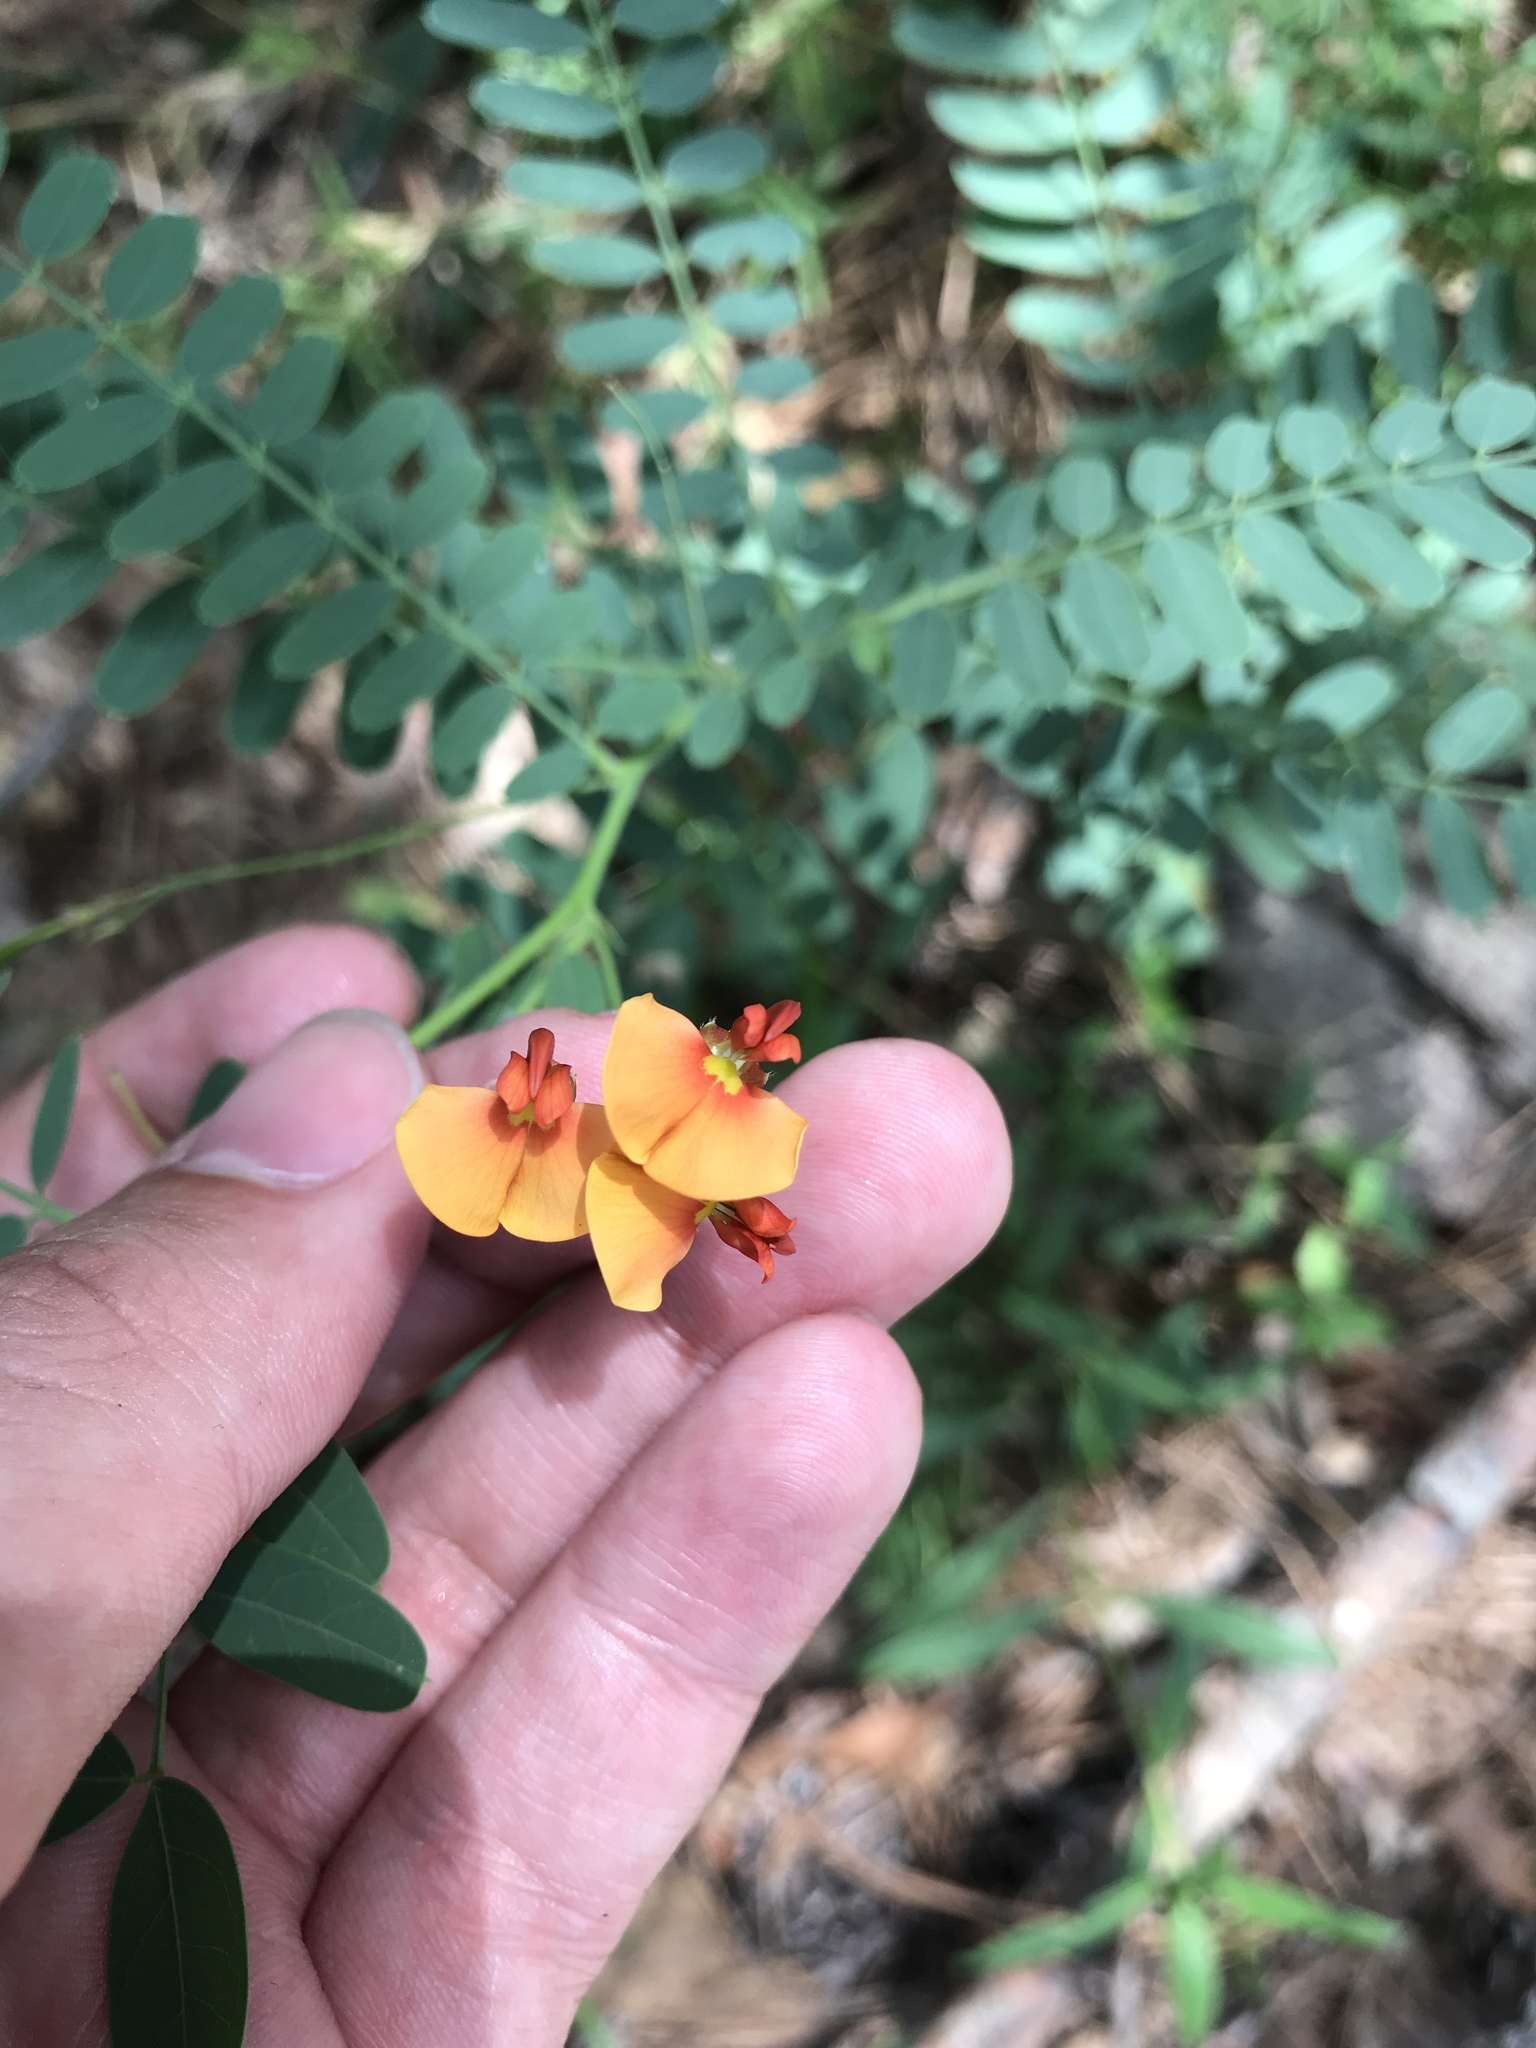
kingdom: Plantae
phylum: Tracheophyta
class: Magnoliopsida
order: Fabales
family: Fabaceae
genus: Sesbania
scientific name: Sesbania vesicaria
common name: Bagpod
